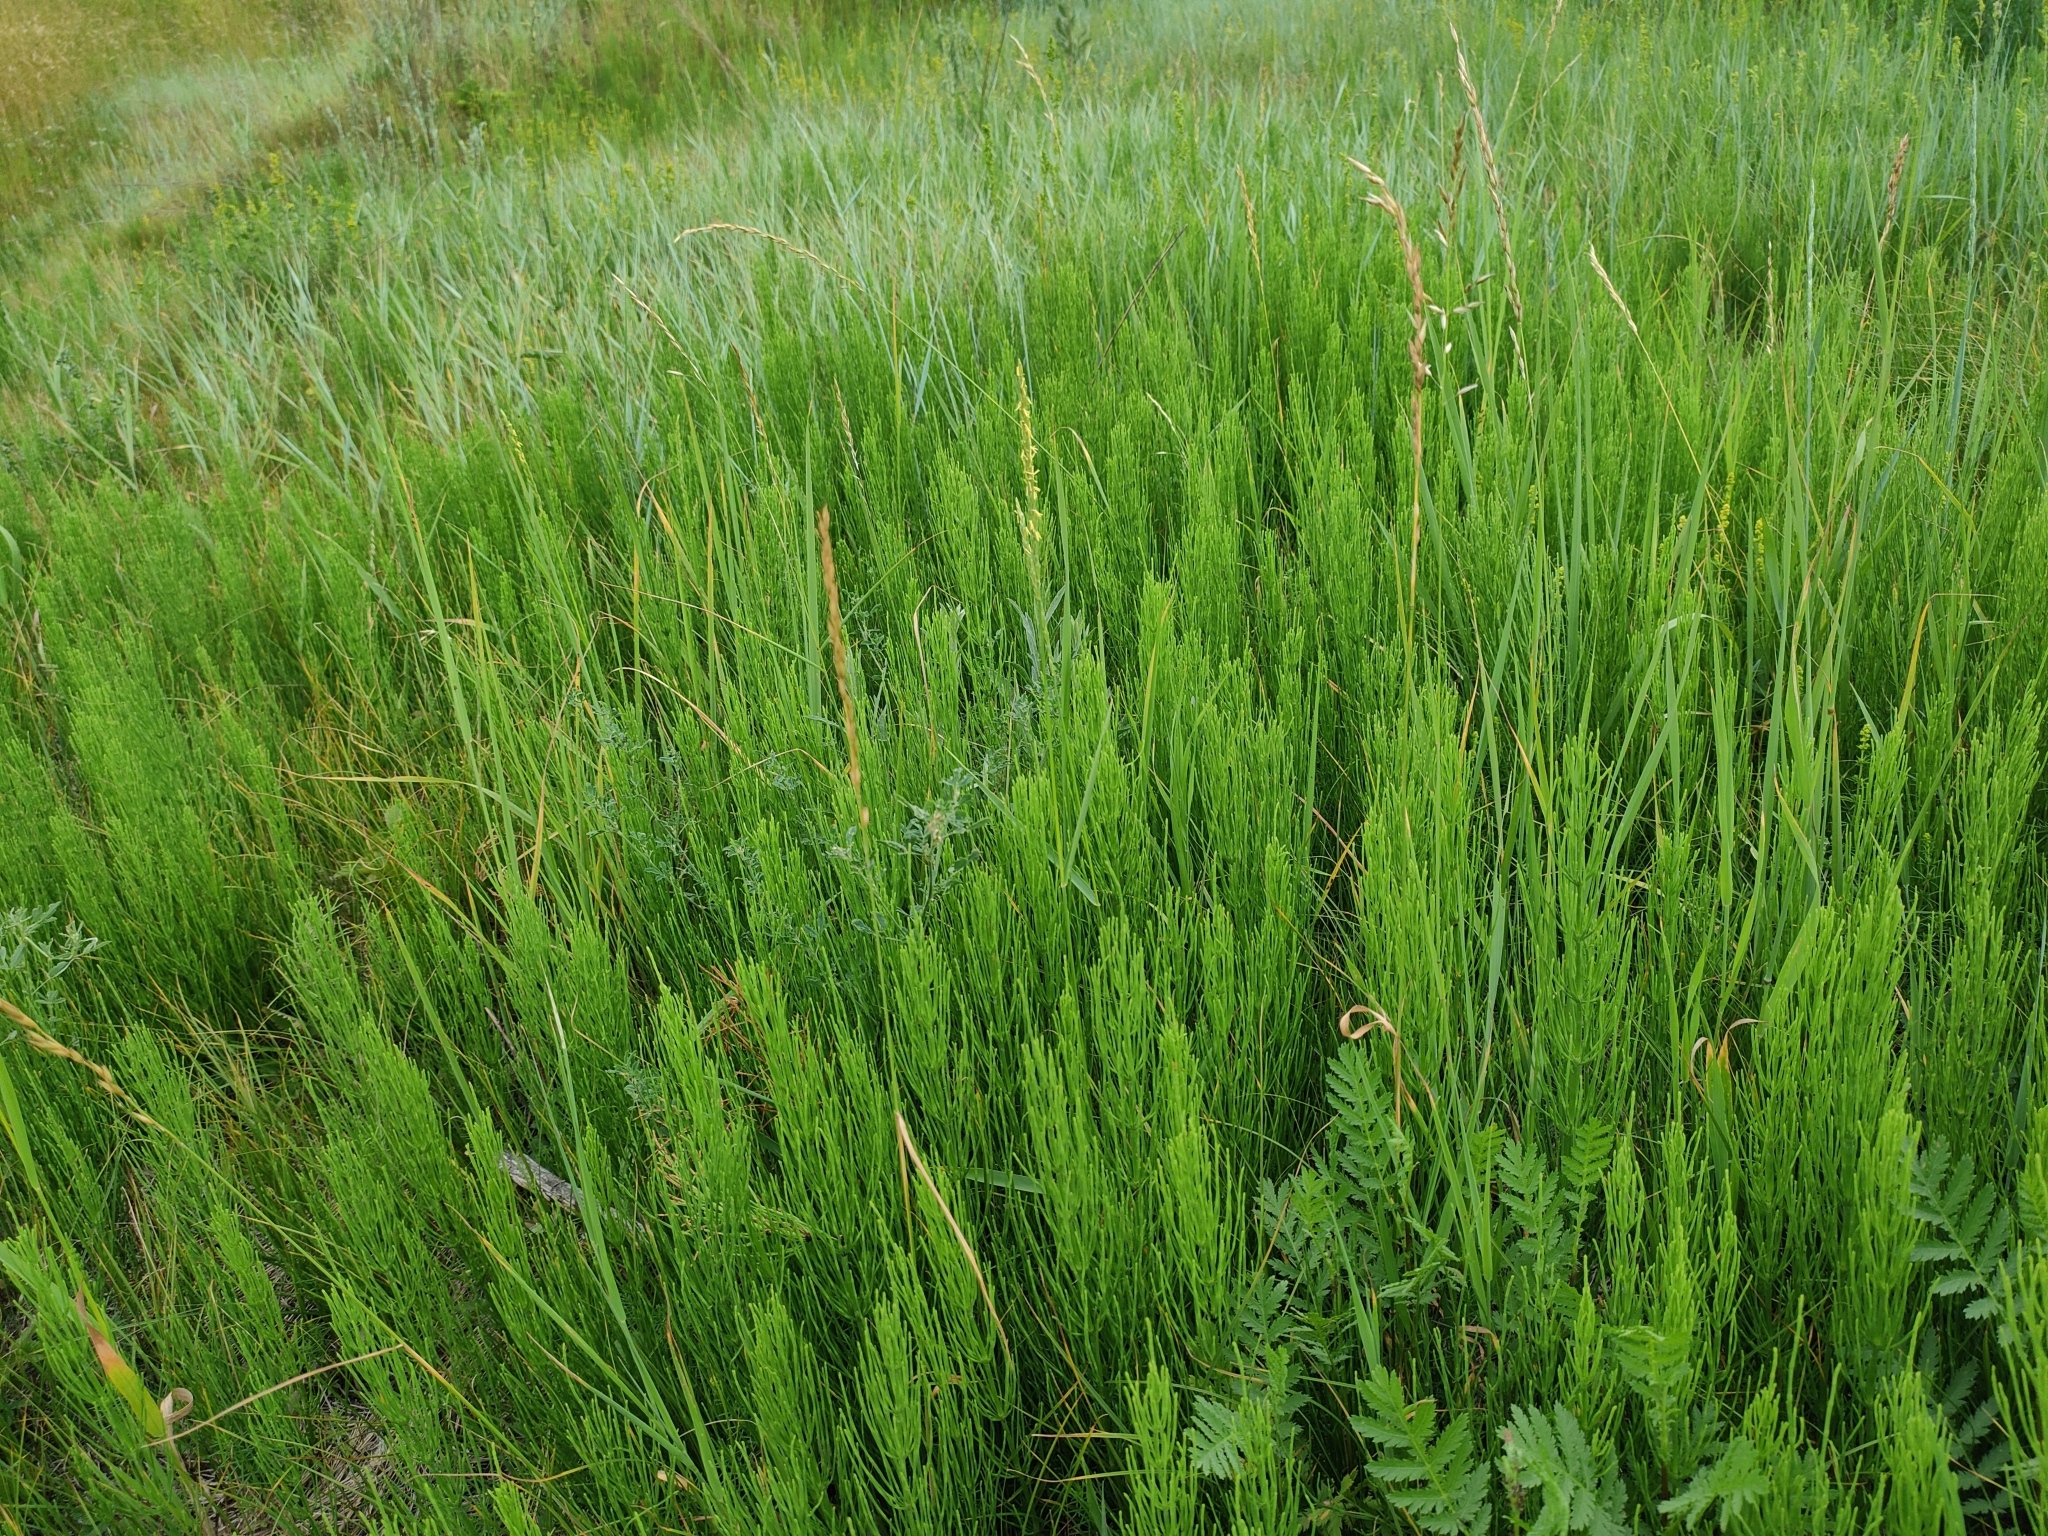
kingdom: Plantae
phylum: Tracheophyta
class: Polypodiopsida
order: Equisetales
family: Equisetaceae
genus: Equisetum
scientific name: Equisetum arvense
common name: Field horsetail
